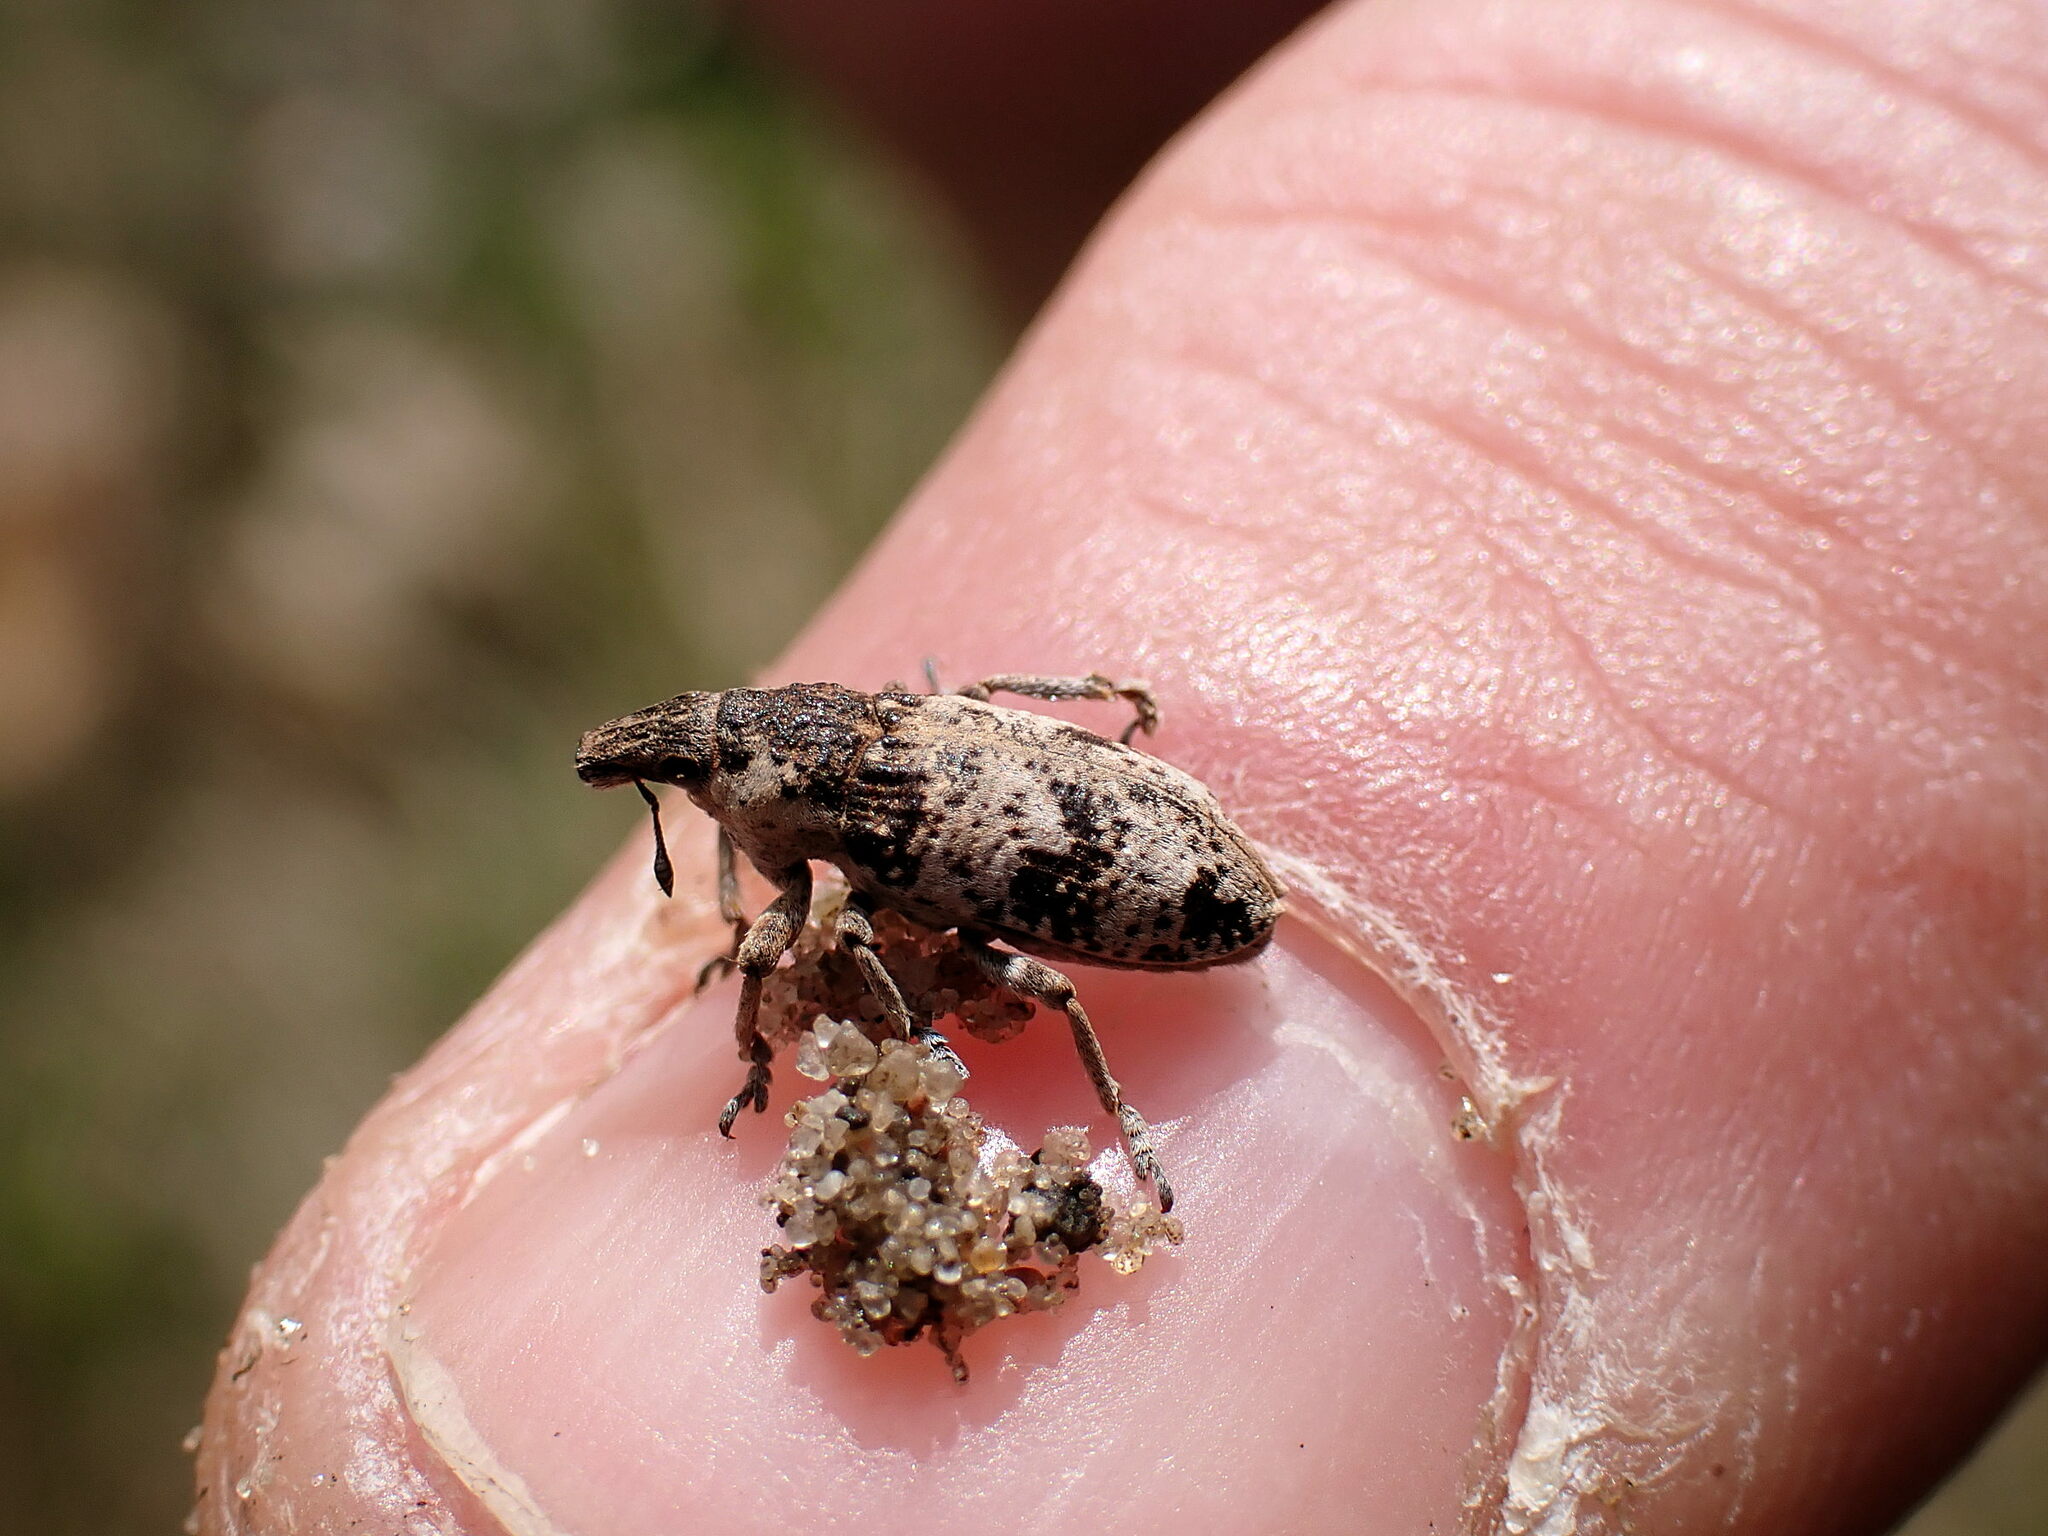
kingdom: Animalia
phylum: Arthropoda
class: Insecta
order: Coleoptera
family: Curculionidae
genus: Bothynoderes
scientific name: Bothynoderes affinis
